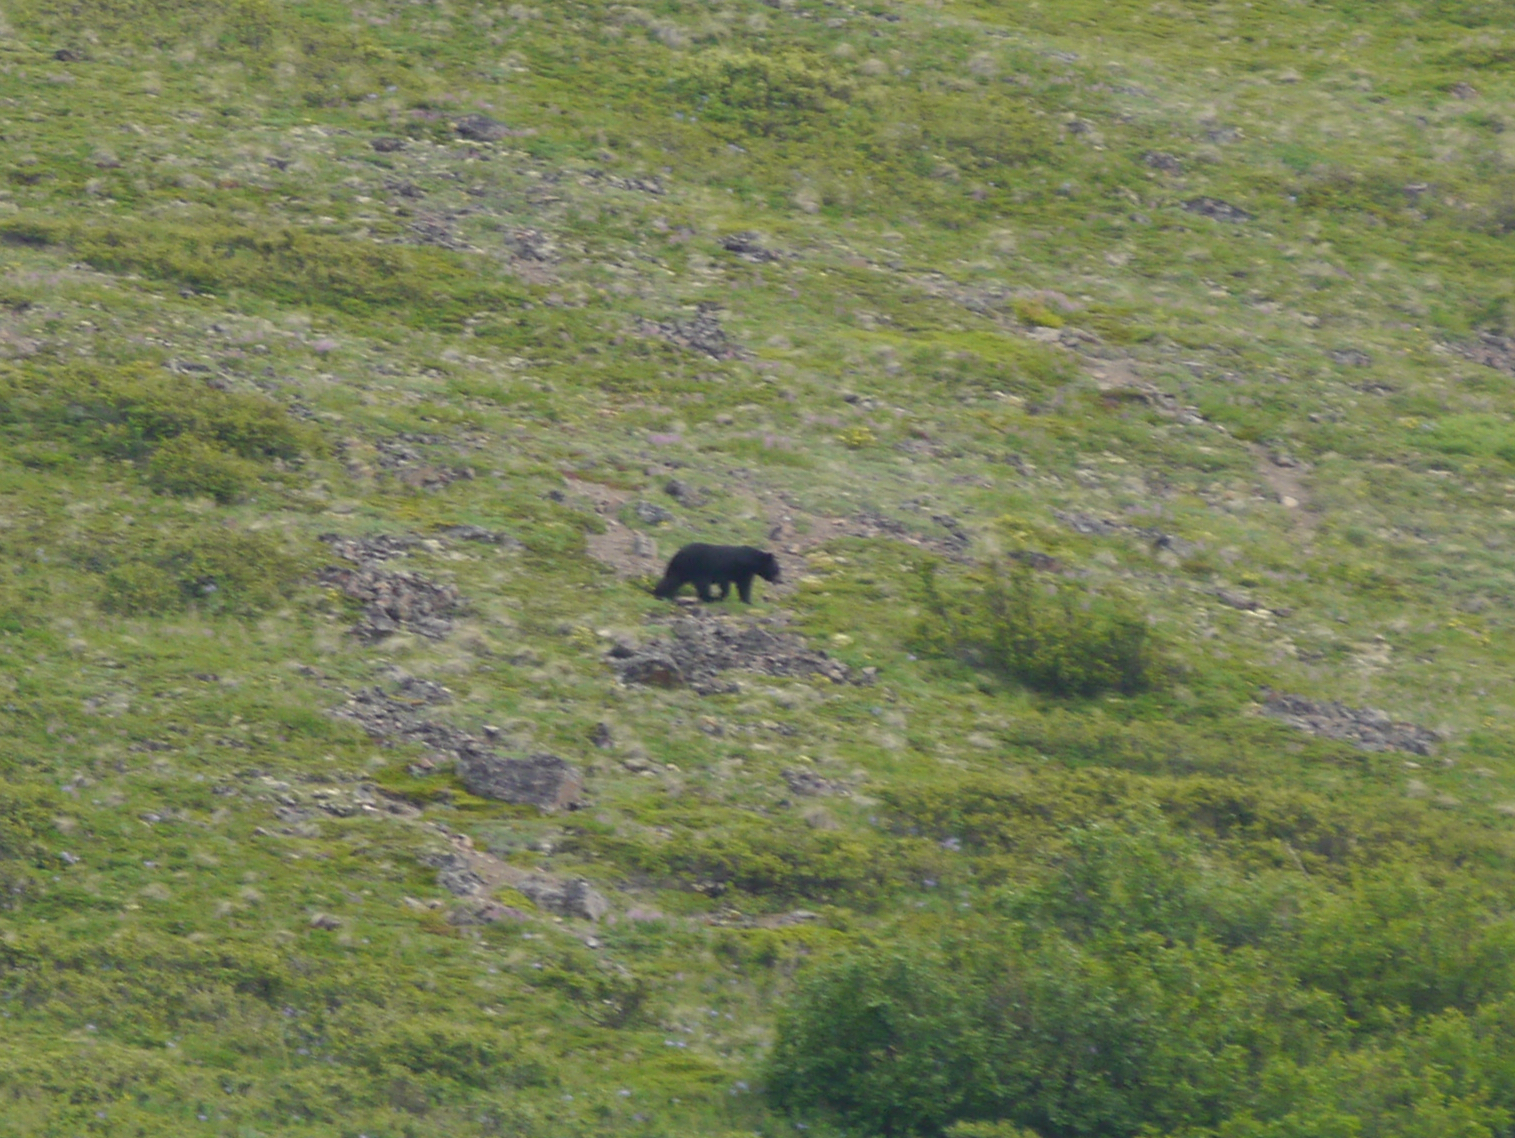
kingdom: Animalia
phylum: Chordata
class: Mammalia
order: Carnivora
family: Ursidae
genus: Ursus
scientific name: Ursus americanus
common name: American black bear
